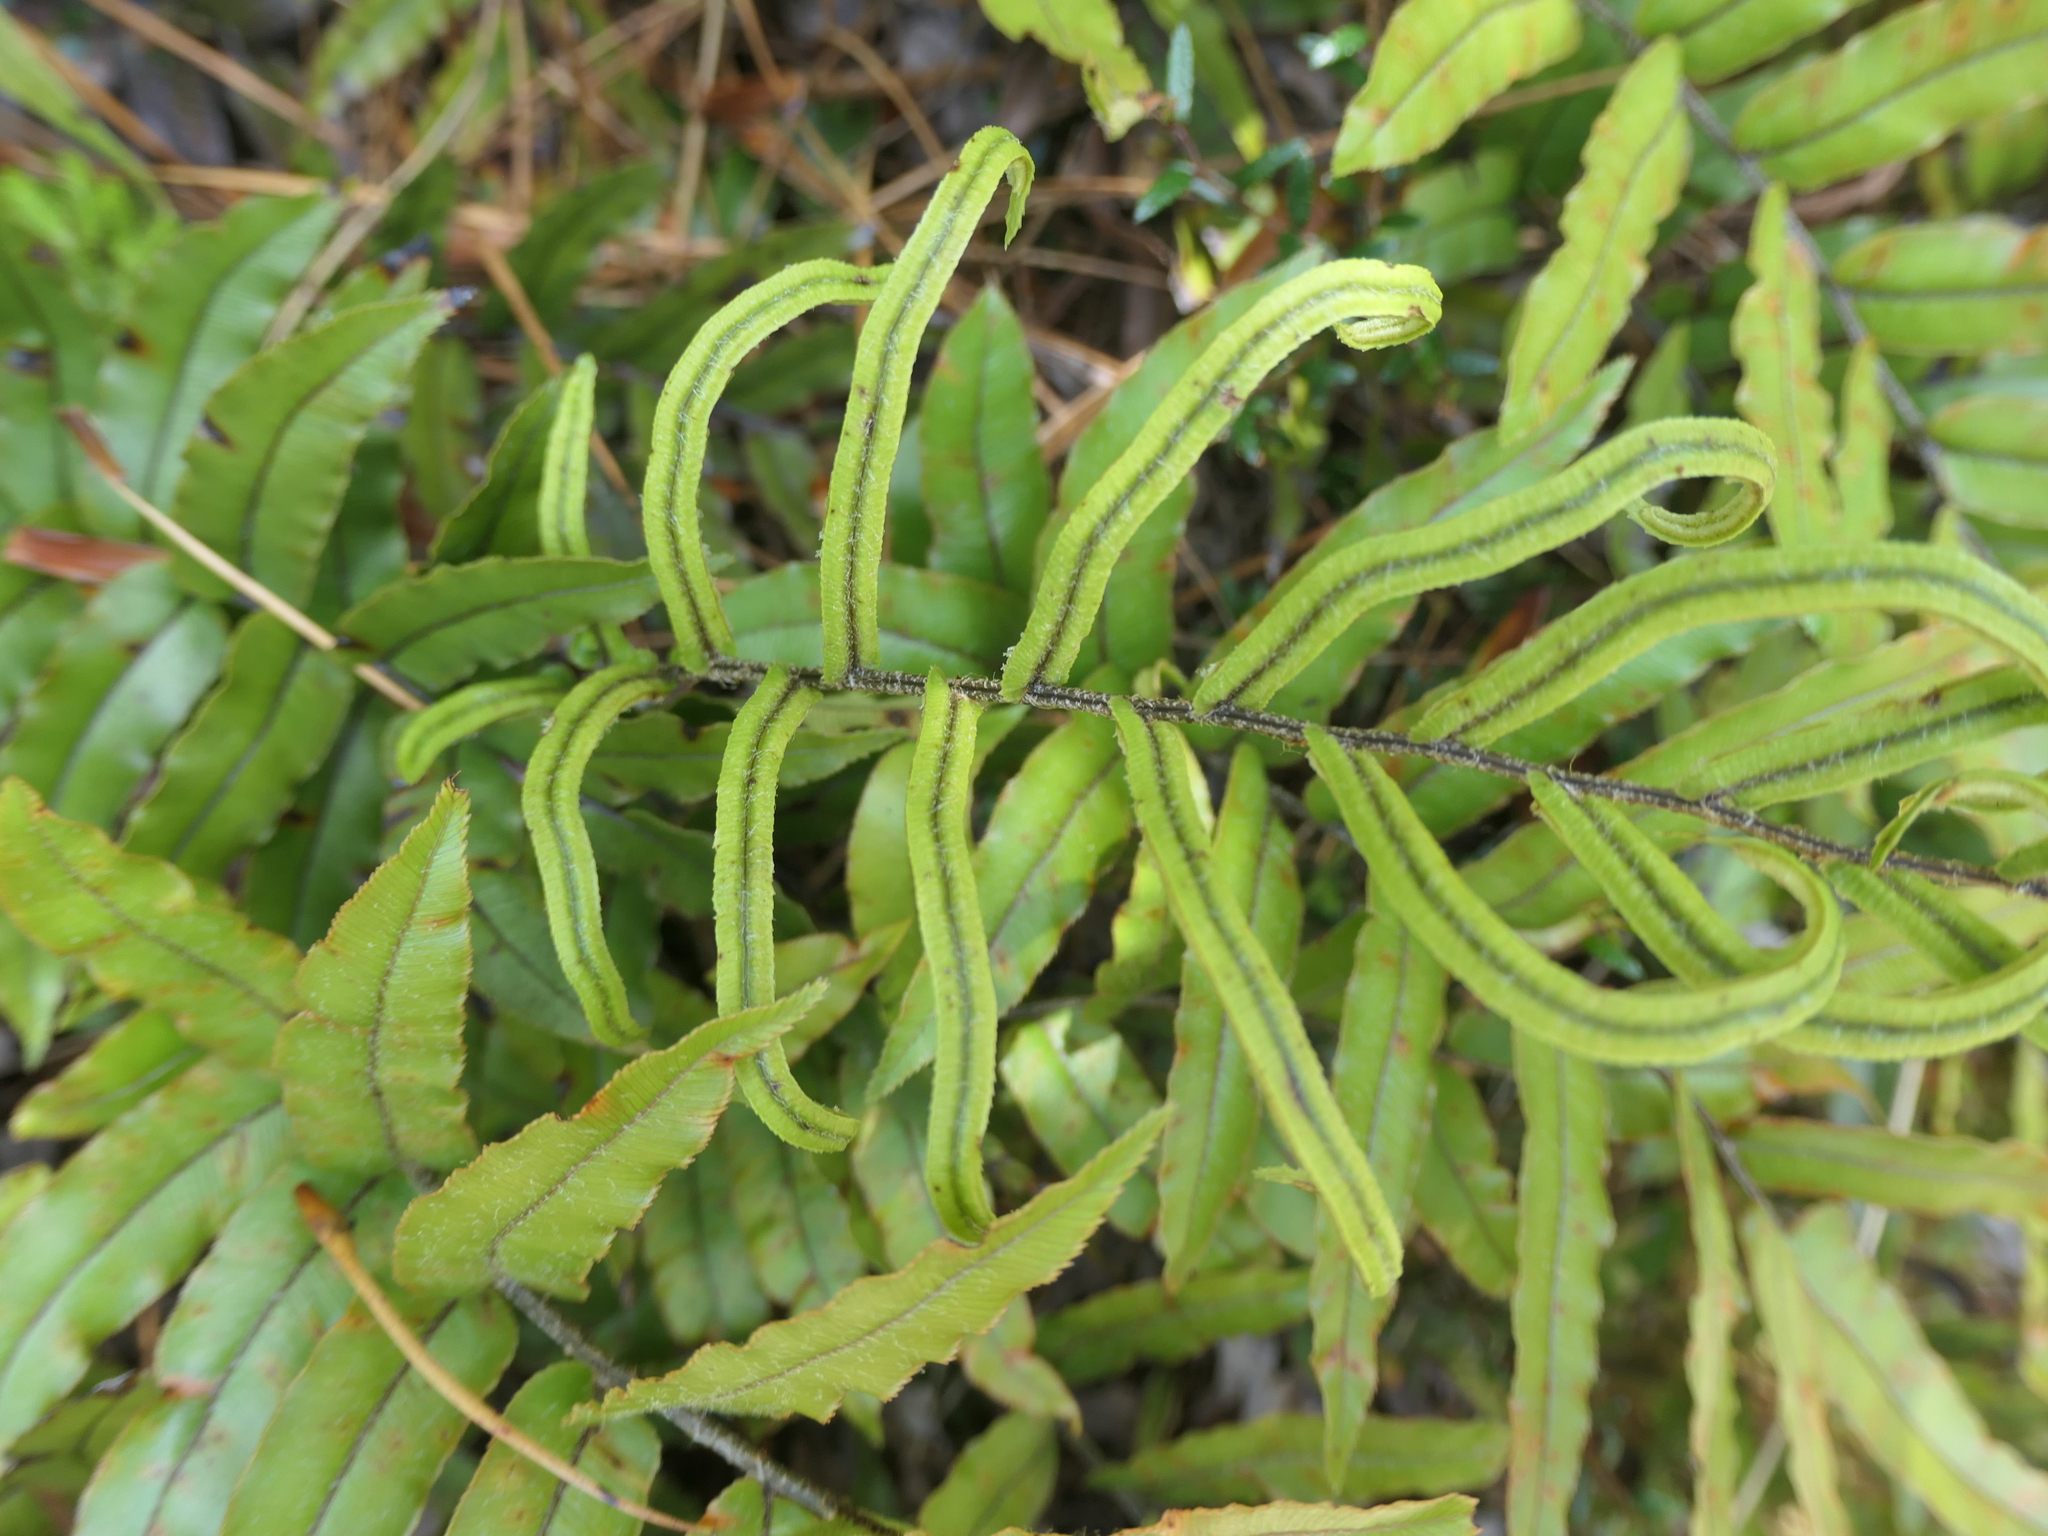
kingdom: Plantae
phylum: Tracheophyta
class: Polypodiopsida
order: Polypodiales
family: Blechnaceae
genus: Parablechnum
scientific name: Parablechnum montanum
